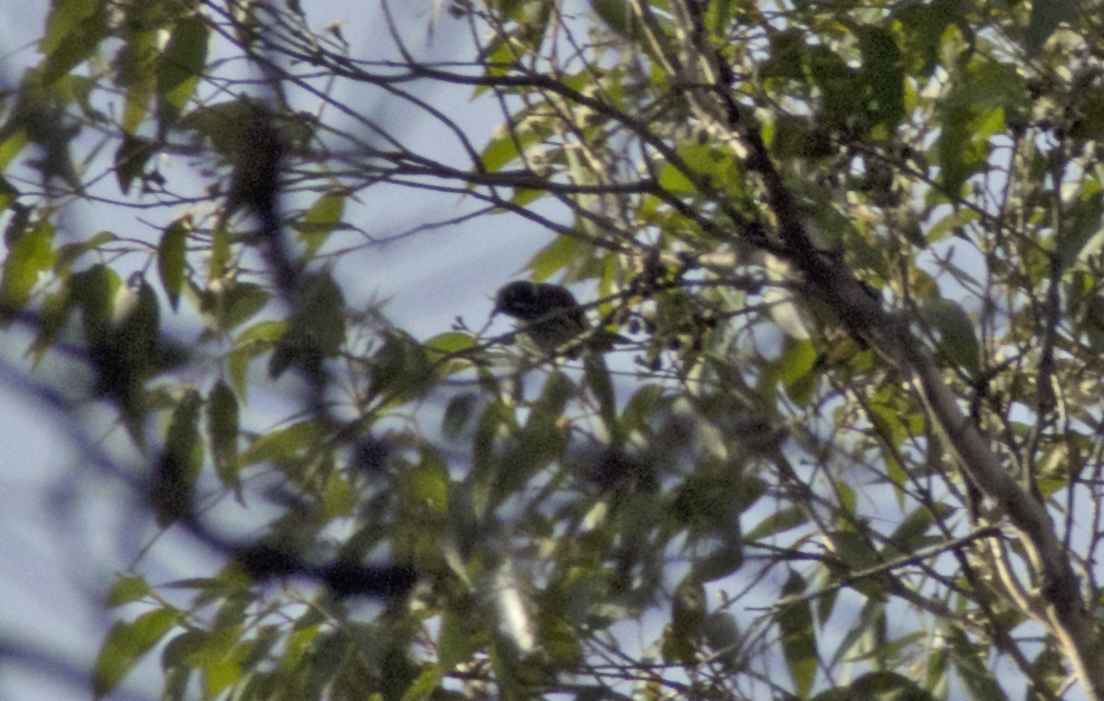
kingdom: Animalia
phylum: Chordata
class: Aves
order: Passeriformes
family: Meliphagidae
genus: Phylidonyris
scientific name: Phylidonyris novaehollandiae
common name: New holland honeyeater
